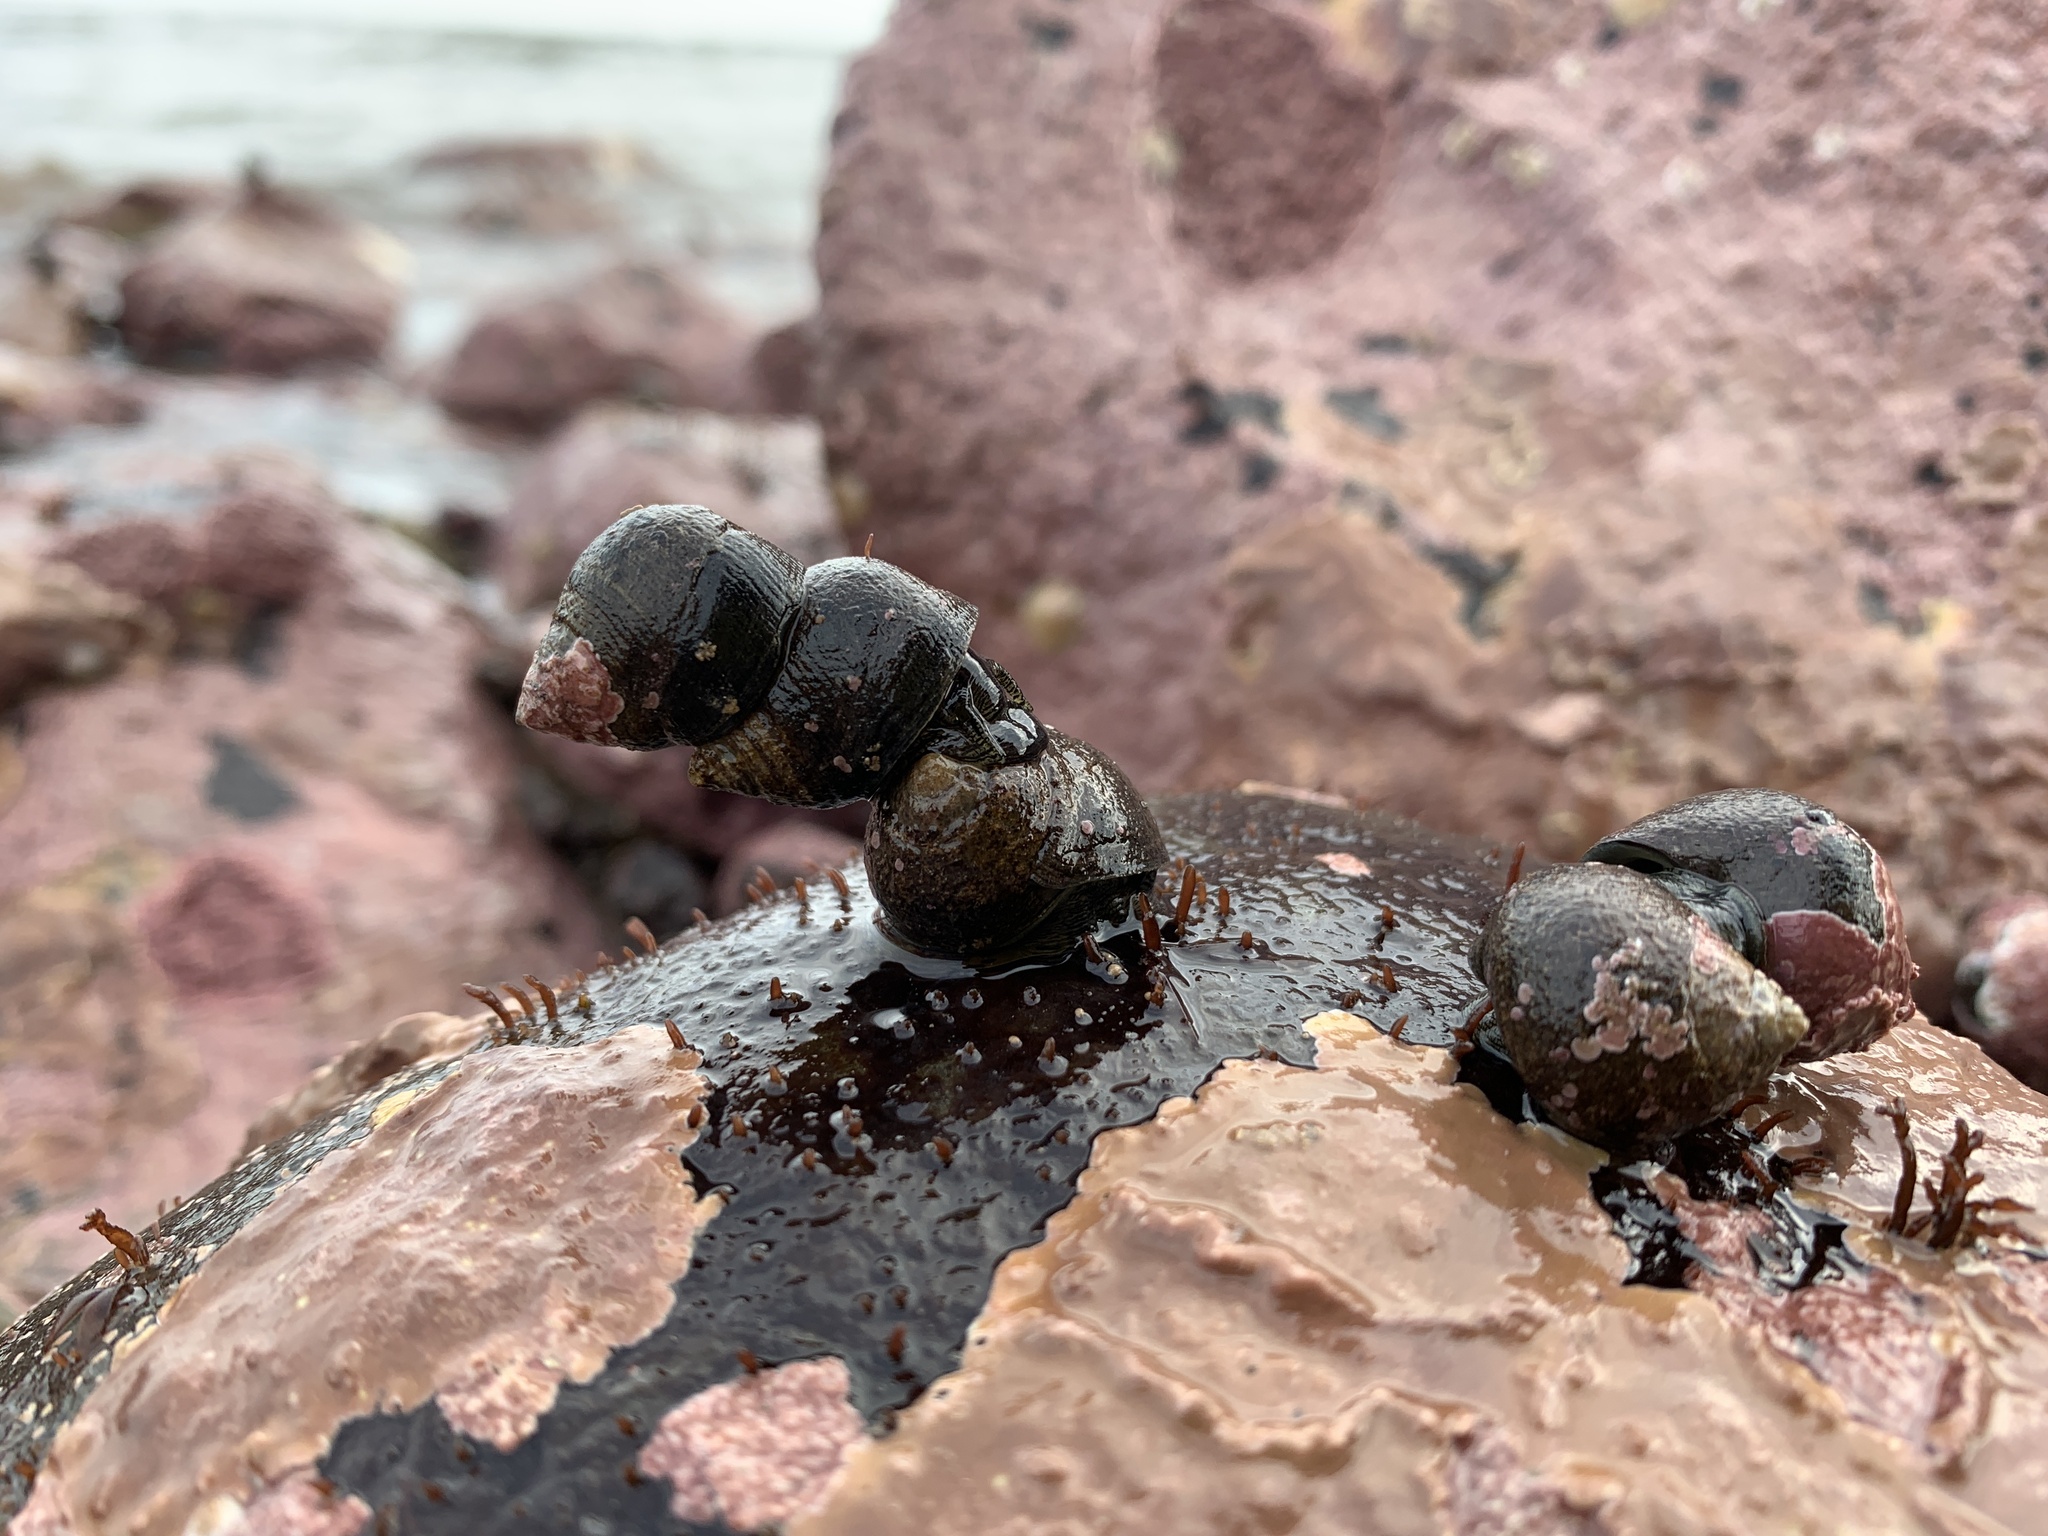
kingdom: Animalia
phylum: Mollusca
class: Gastropoda
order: Littorinimorpha
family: Littorinidae
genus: Littorina
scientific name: Littorina littorea
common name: Common periwinkle
